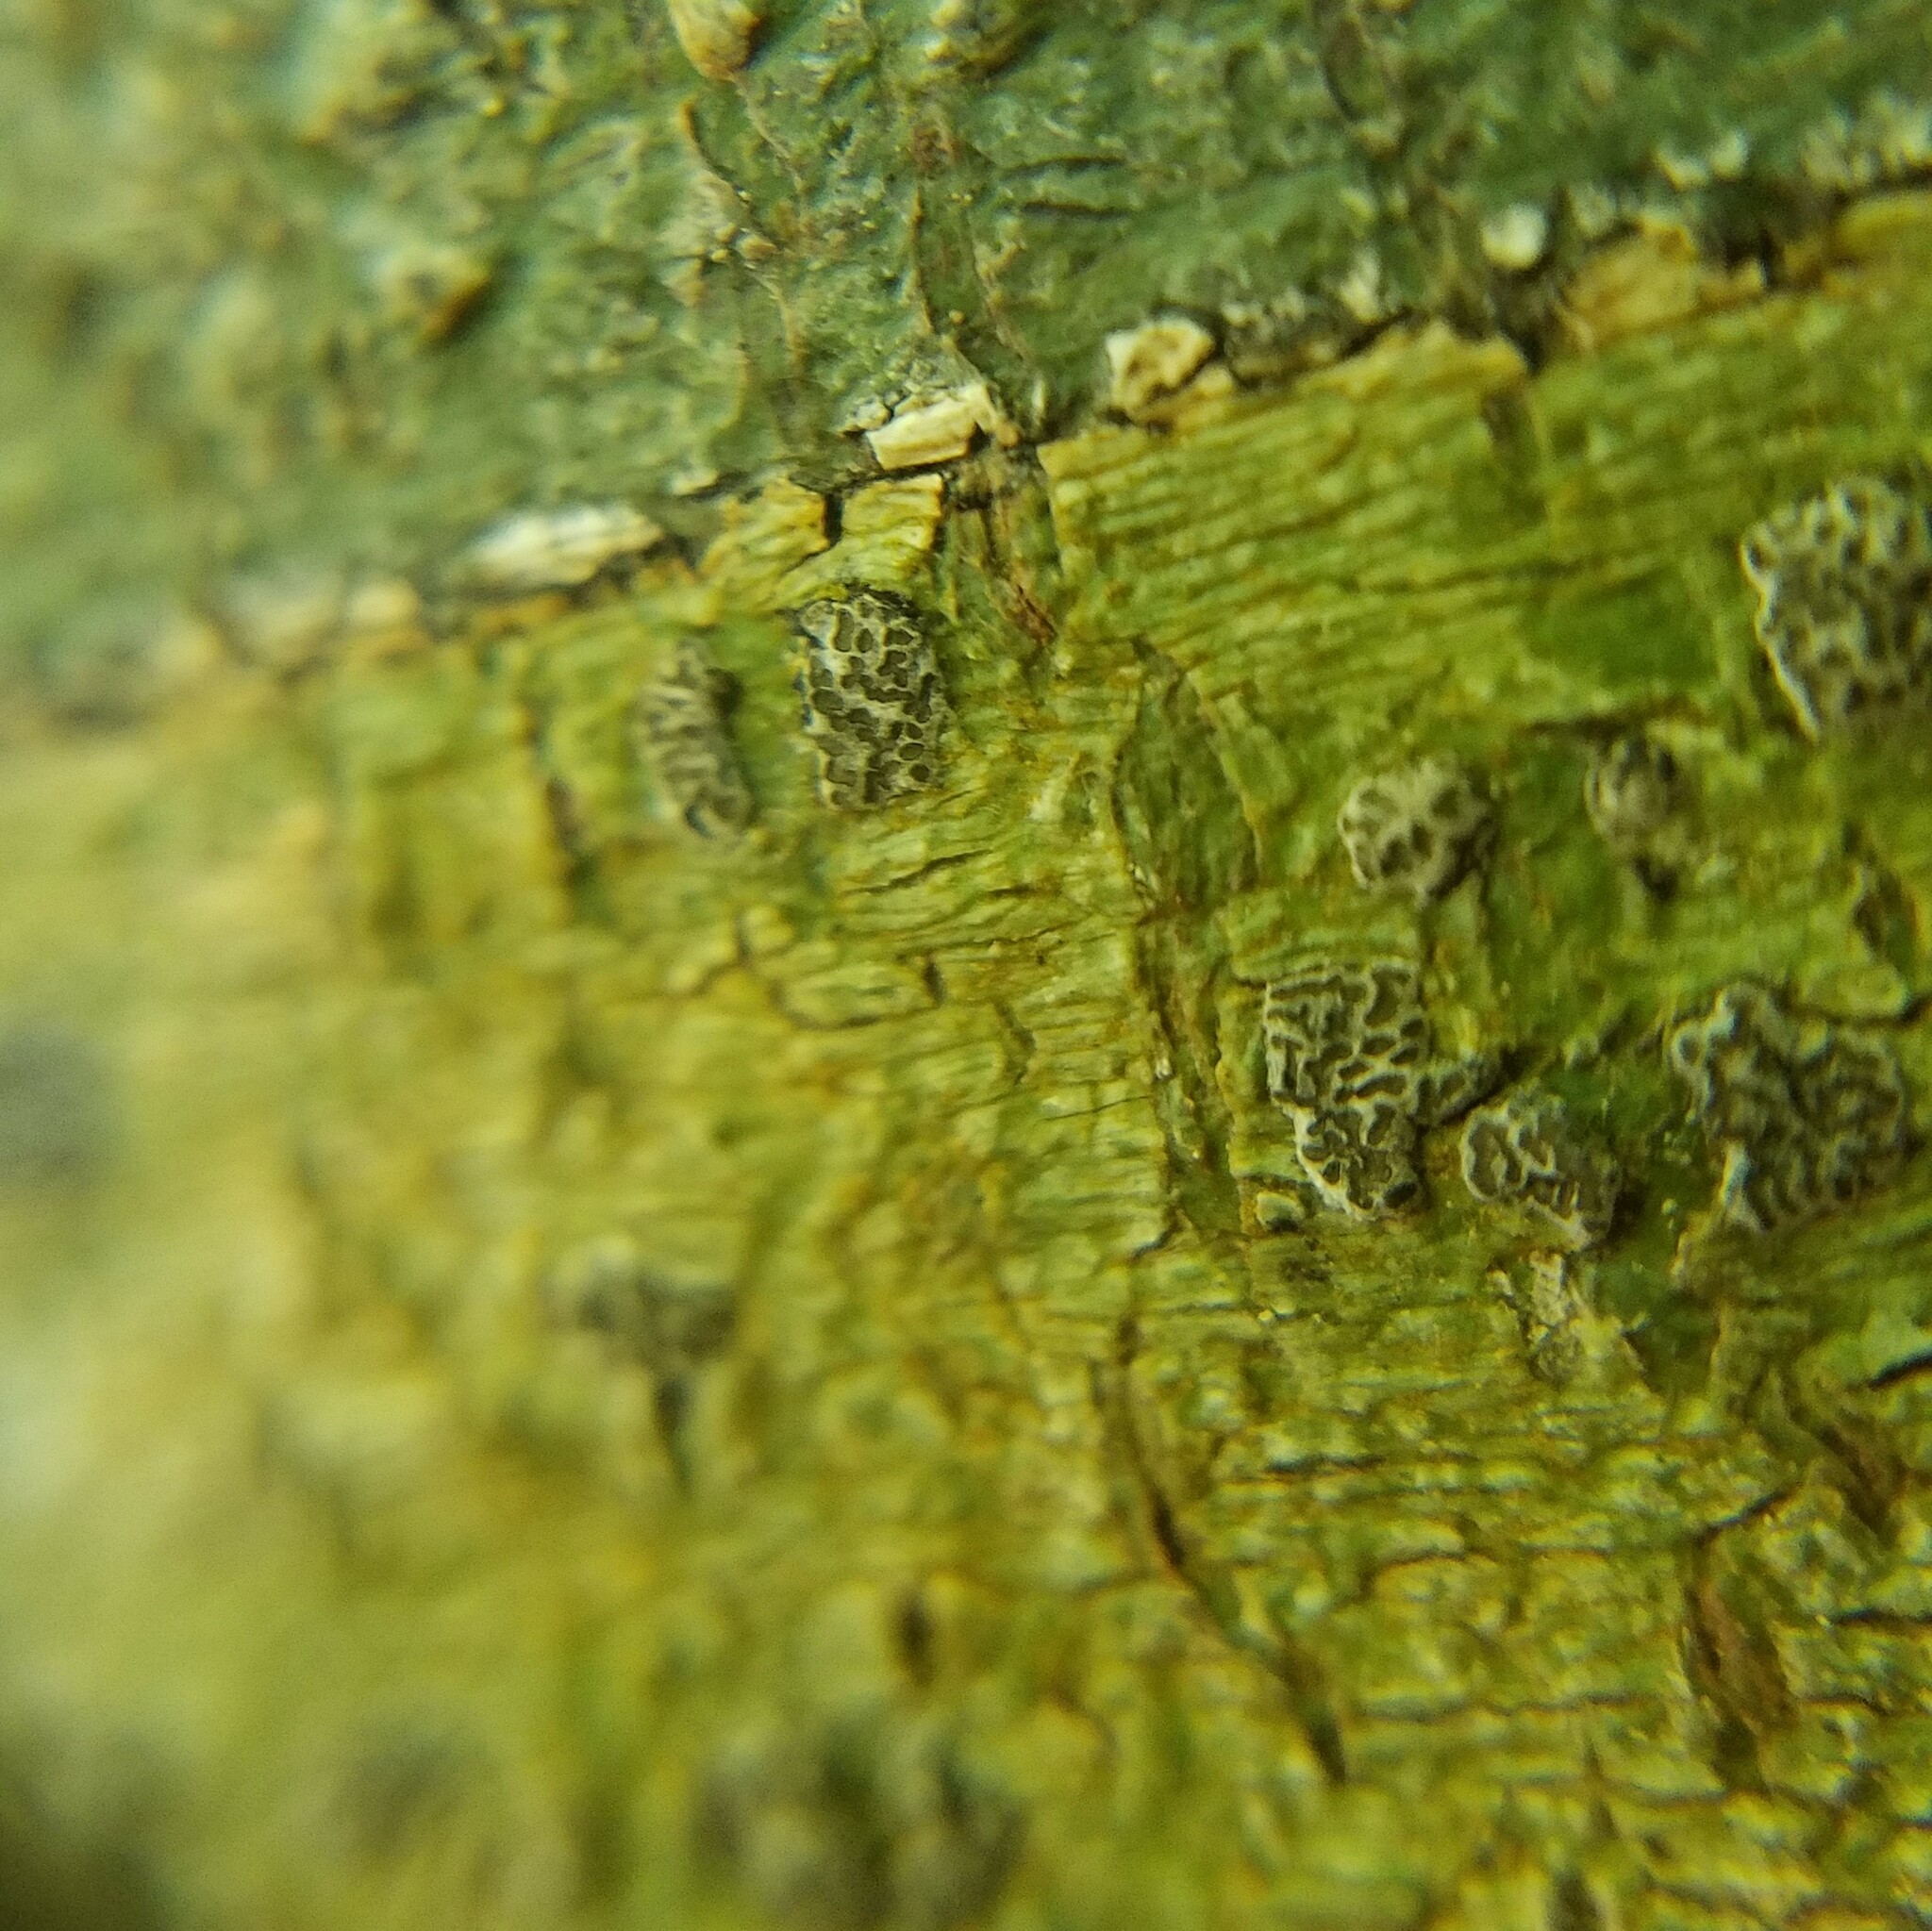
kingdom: Fungi
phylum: Ascomycota
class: Lecanoromycetes
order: Ostropales
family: Graphidaceae
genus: Glyphis
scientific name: Glyphis cicatricosa
